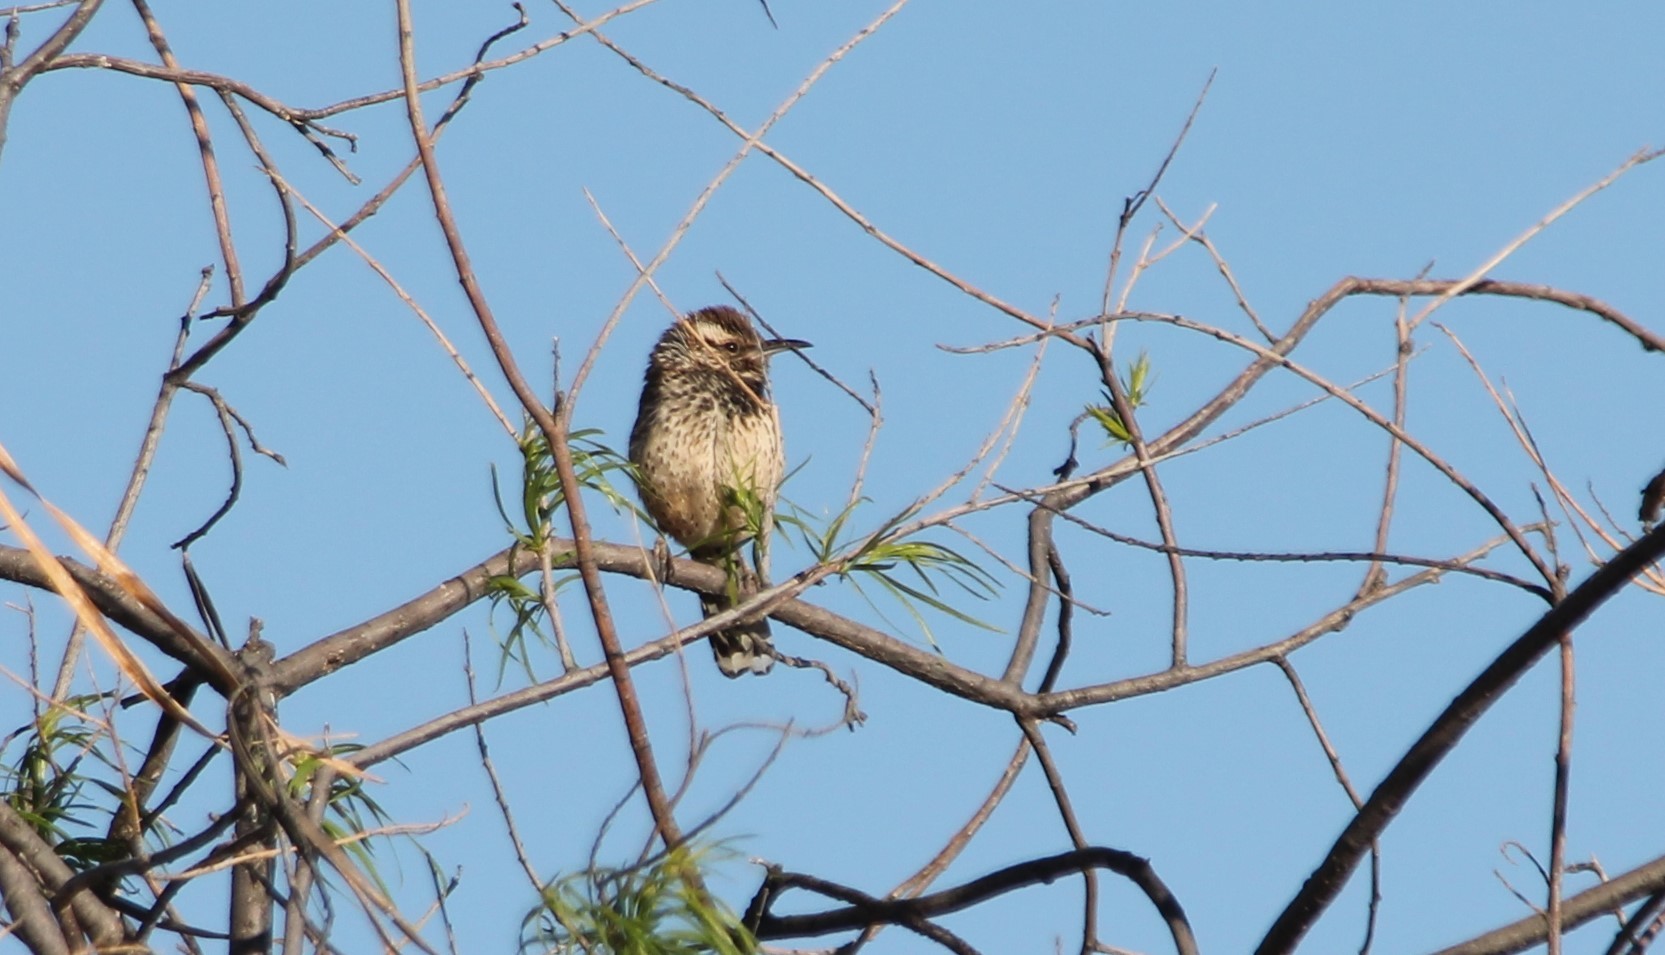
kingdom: Animalia
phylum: Chordata
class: Aves
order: Passeriformes
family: Troglodytidae
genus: Campylorhynchus
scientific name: Campylorhynchus brunneicapillus
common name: Cactus wren
